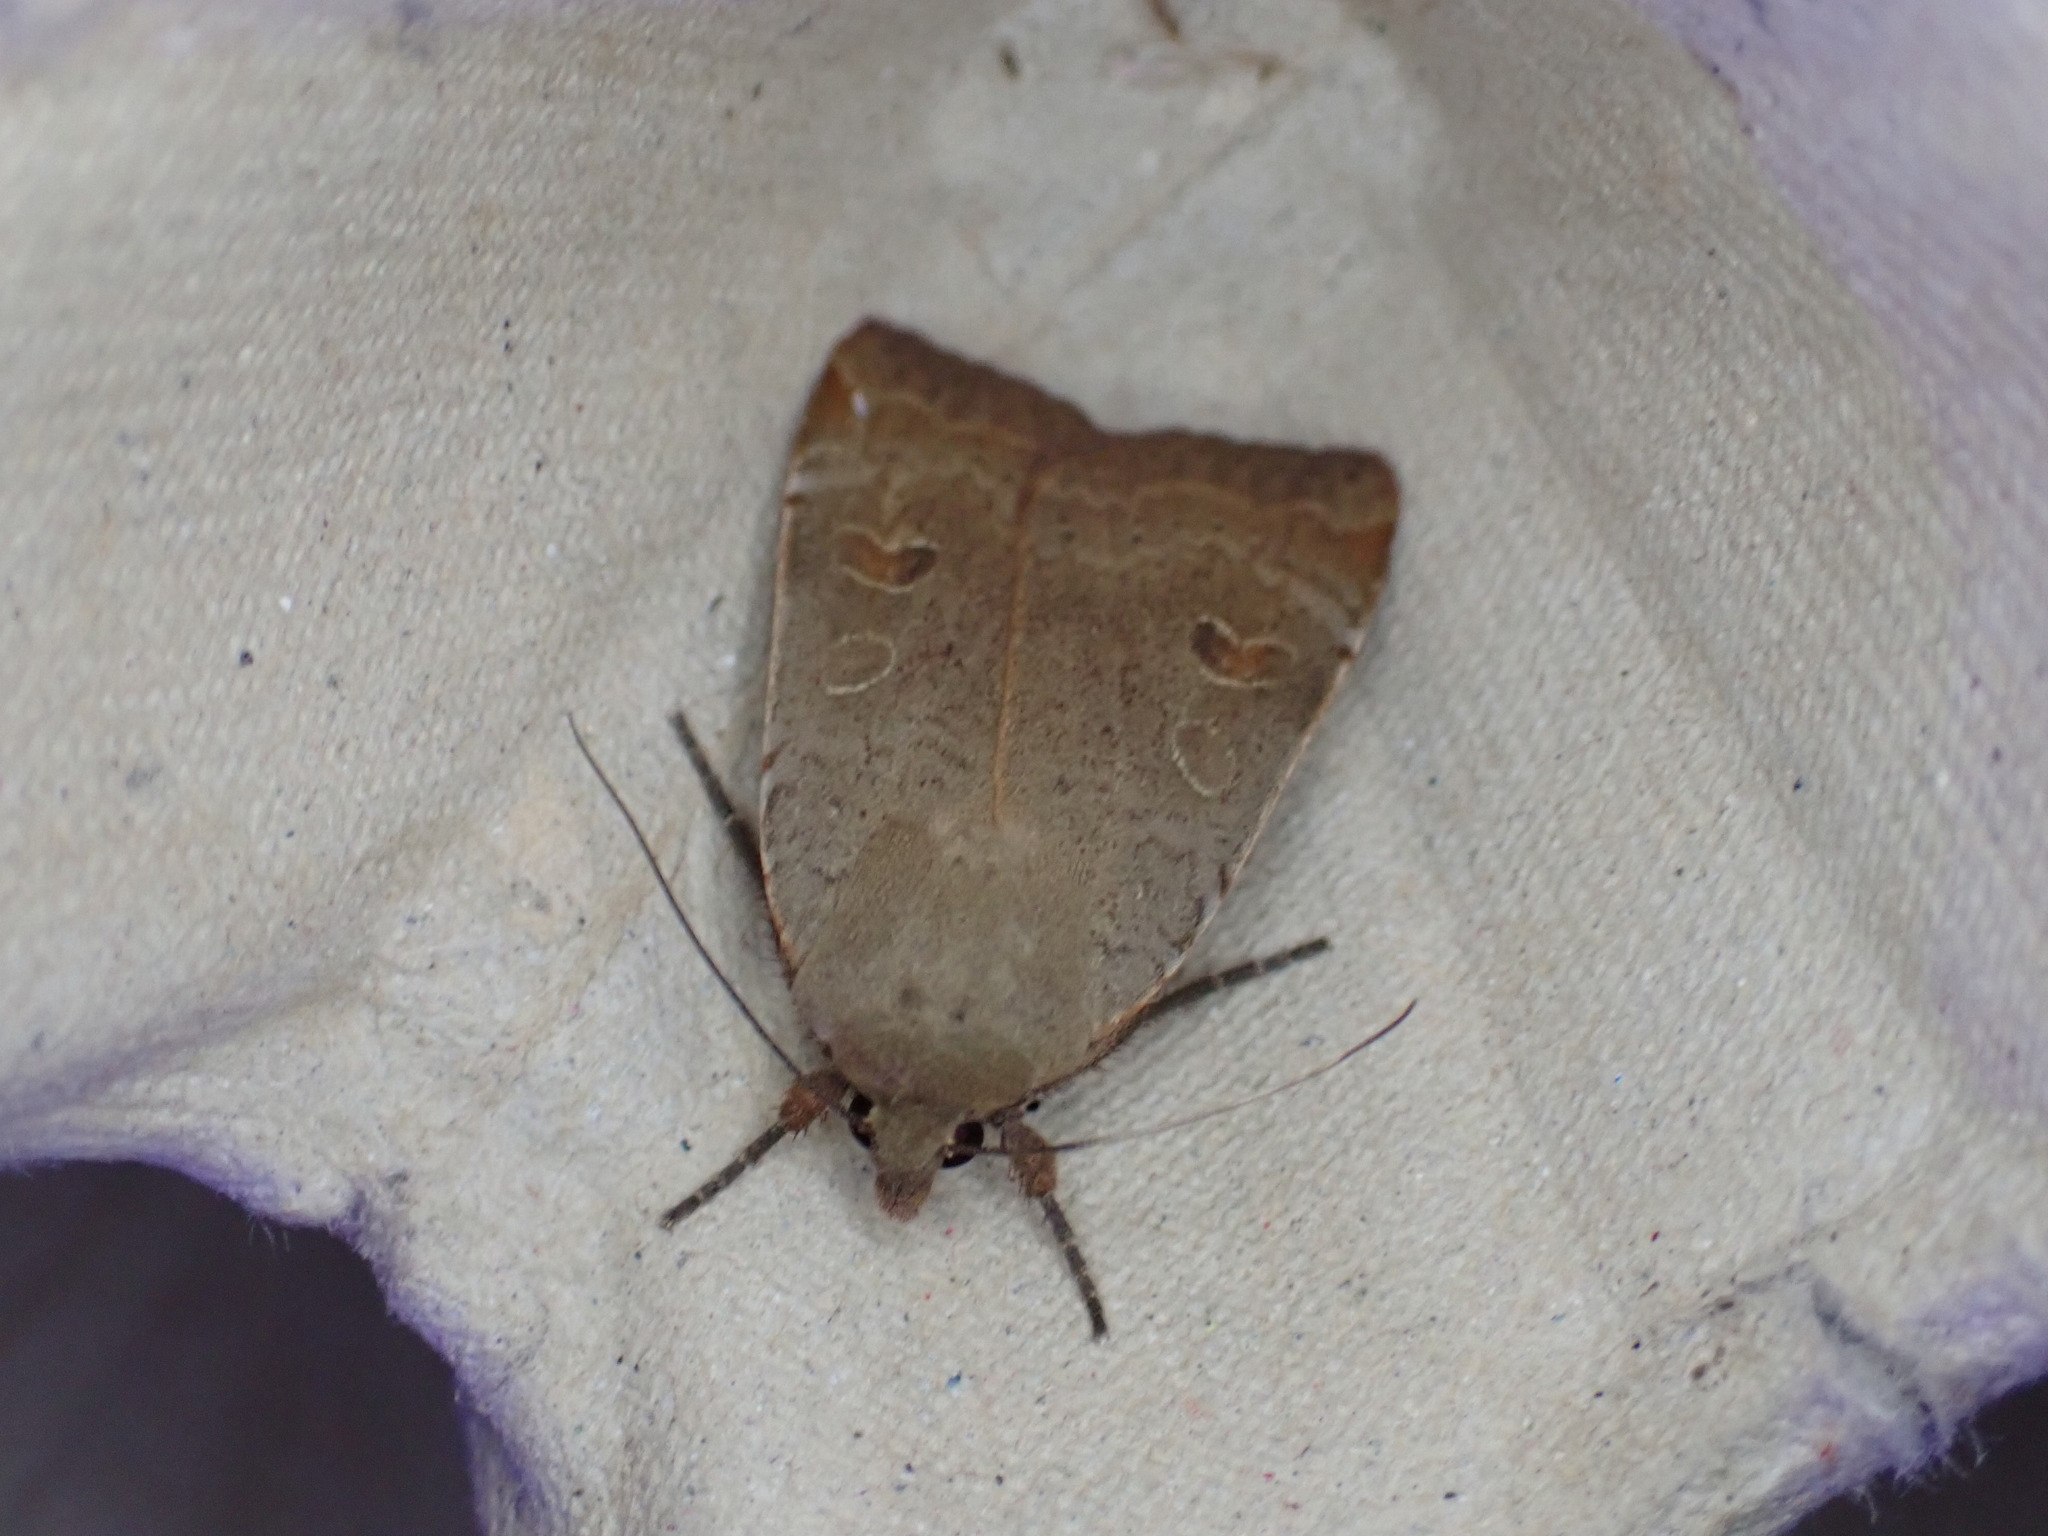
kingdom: Animalia
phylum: Arthropoda
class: Insecta
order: Lepidoptera
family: Noctuidae
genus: Noctua
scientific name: Noctua comes
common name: Lesser yellow underwing
